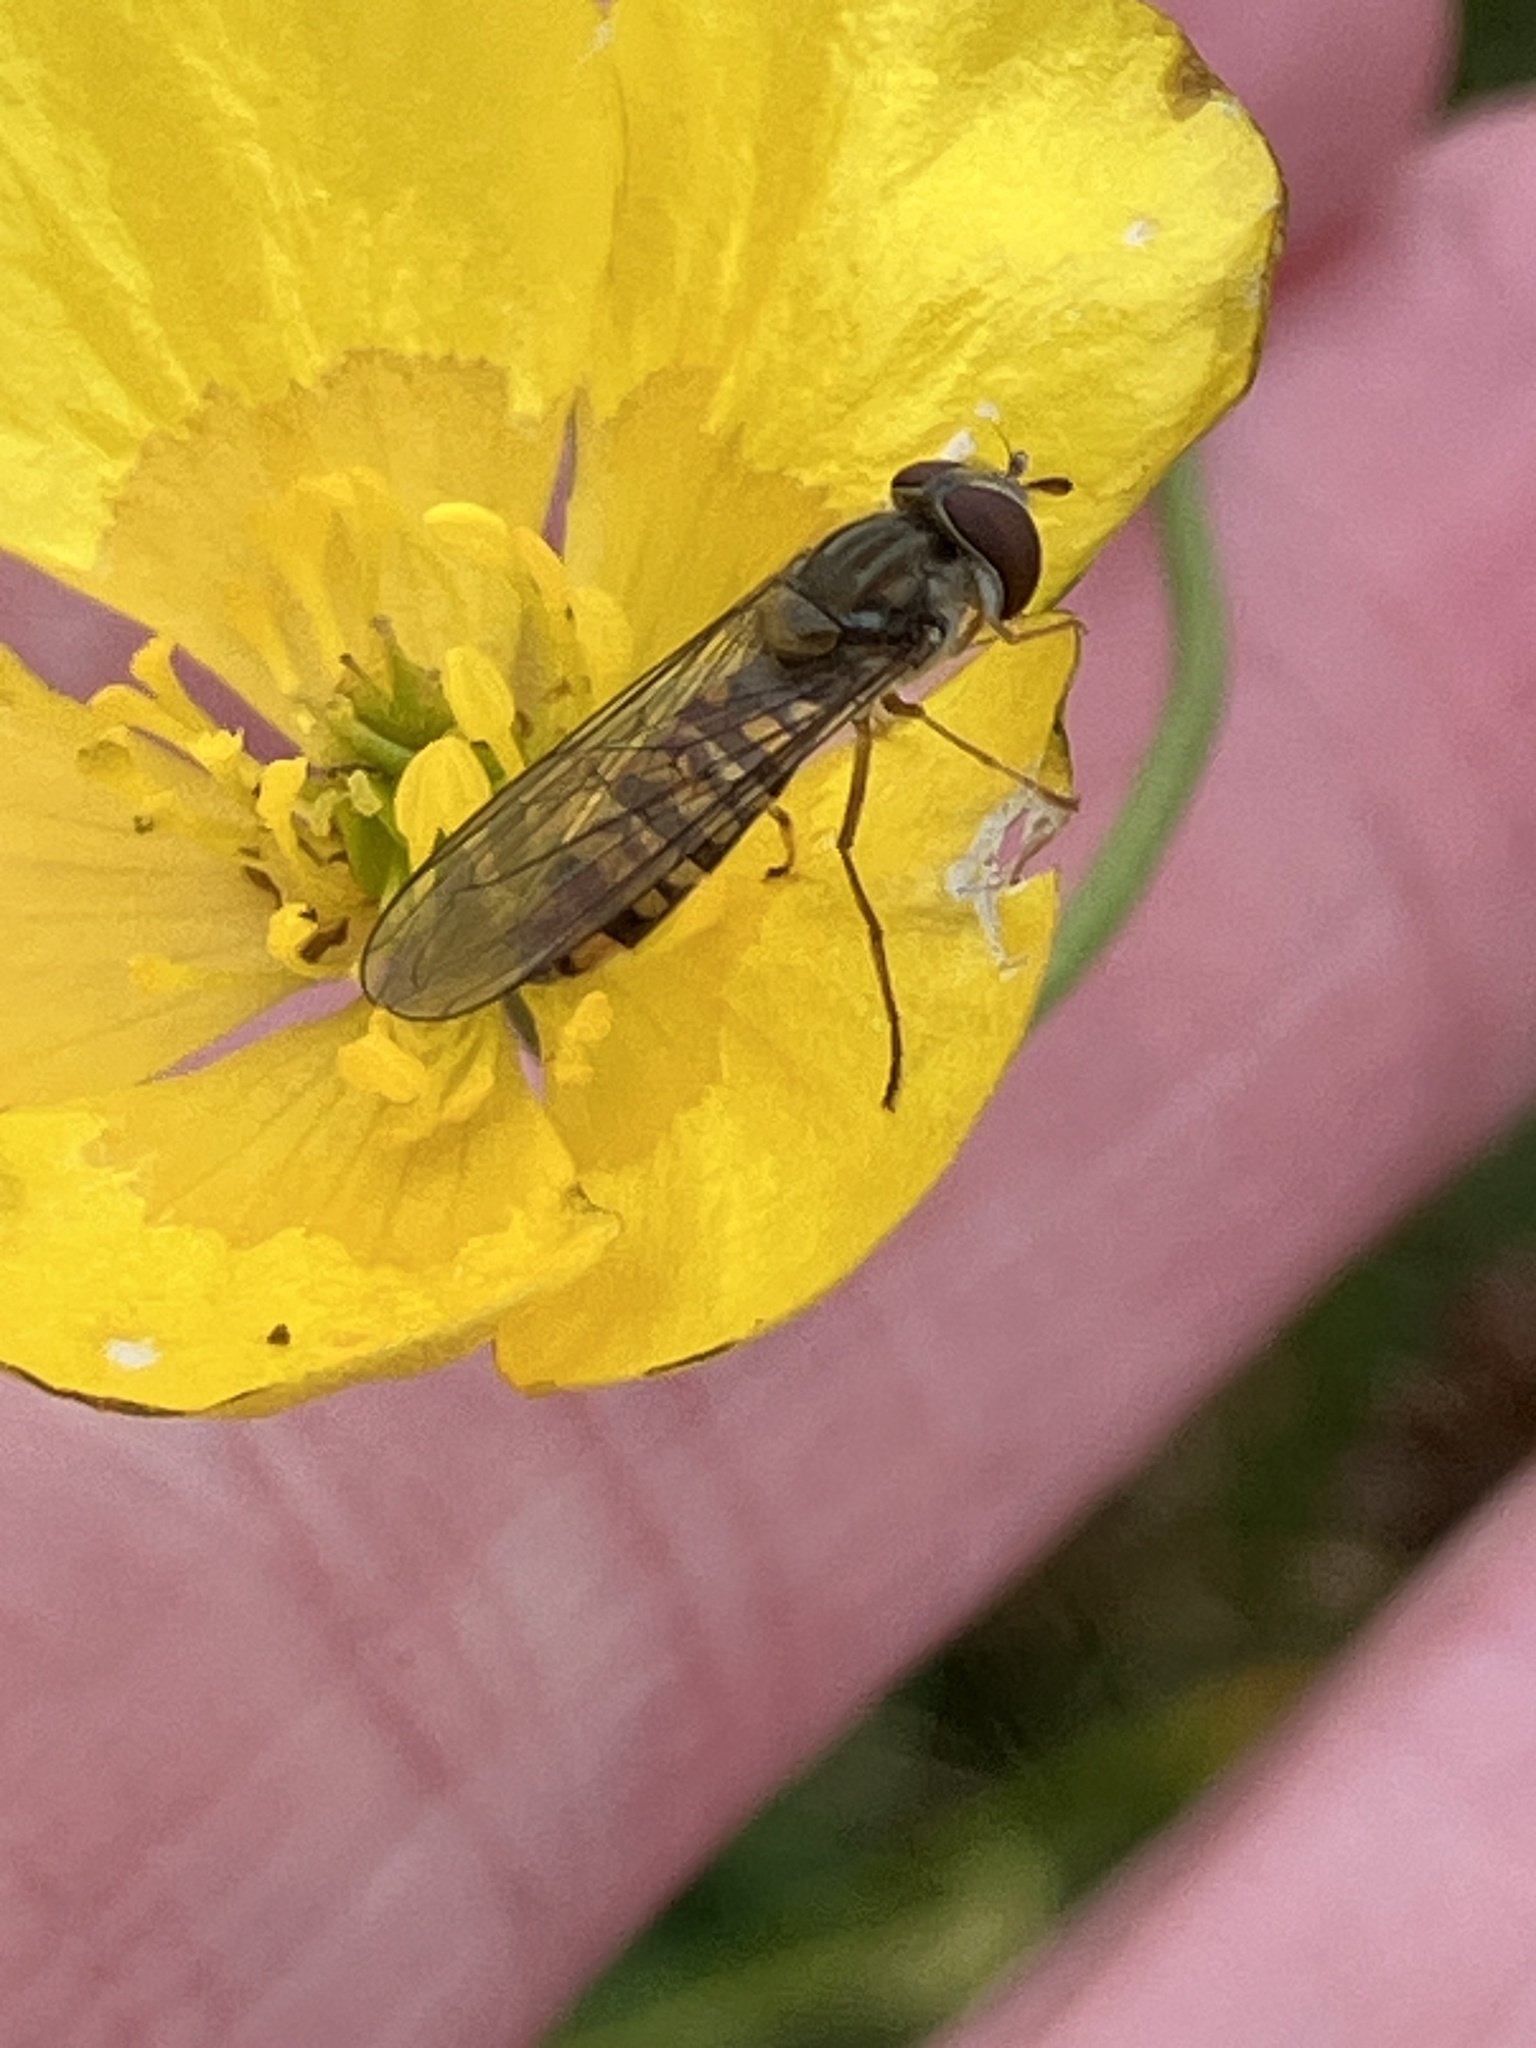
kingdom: Animalia
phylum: Arthropoda
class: Insecta
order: Diptera
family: Syrphidae
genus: Episyrphus
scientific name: Episyrphus balteatus
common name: Marmalade hoverfly
